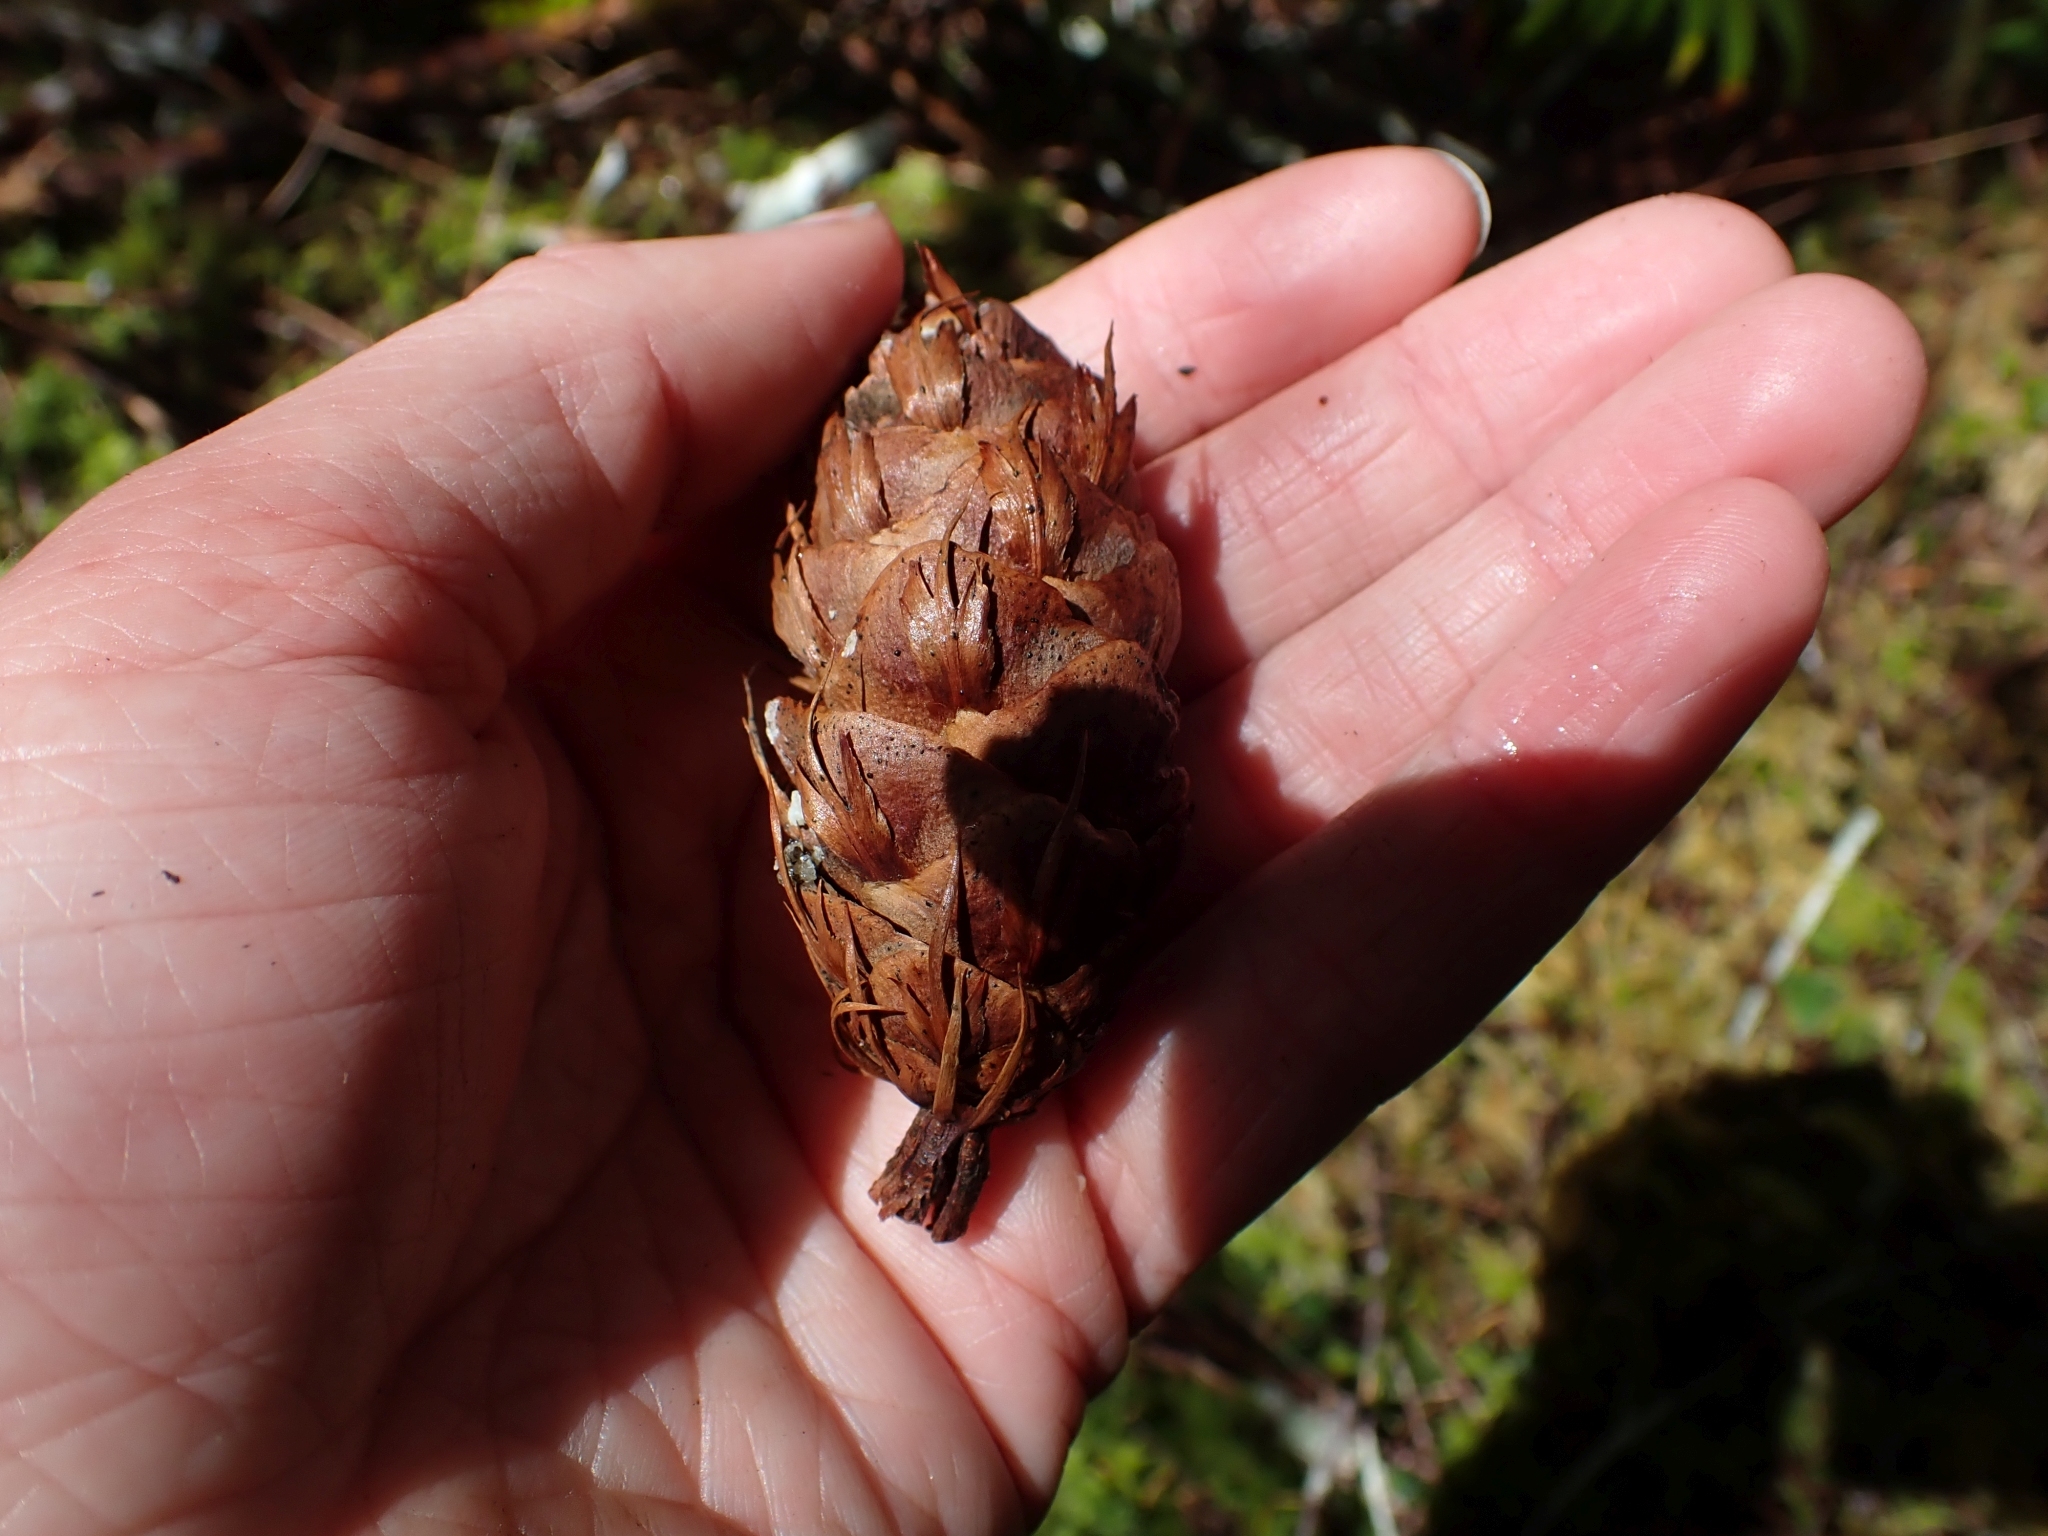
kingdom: Plantae
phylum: Tracheophyta
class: Pinopsida
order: Pinales
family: Pinaceae
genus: Pseudotsuga
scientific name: Pseudotsuga menziesii
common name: Douglas fir
